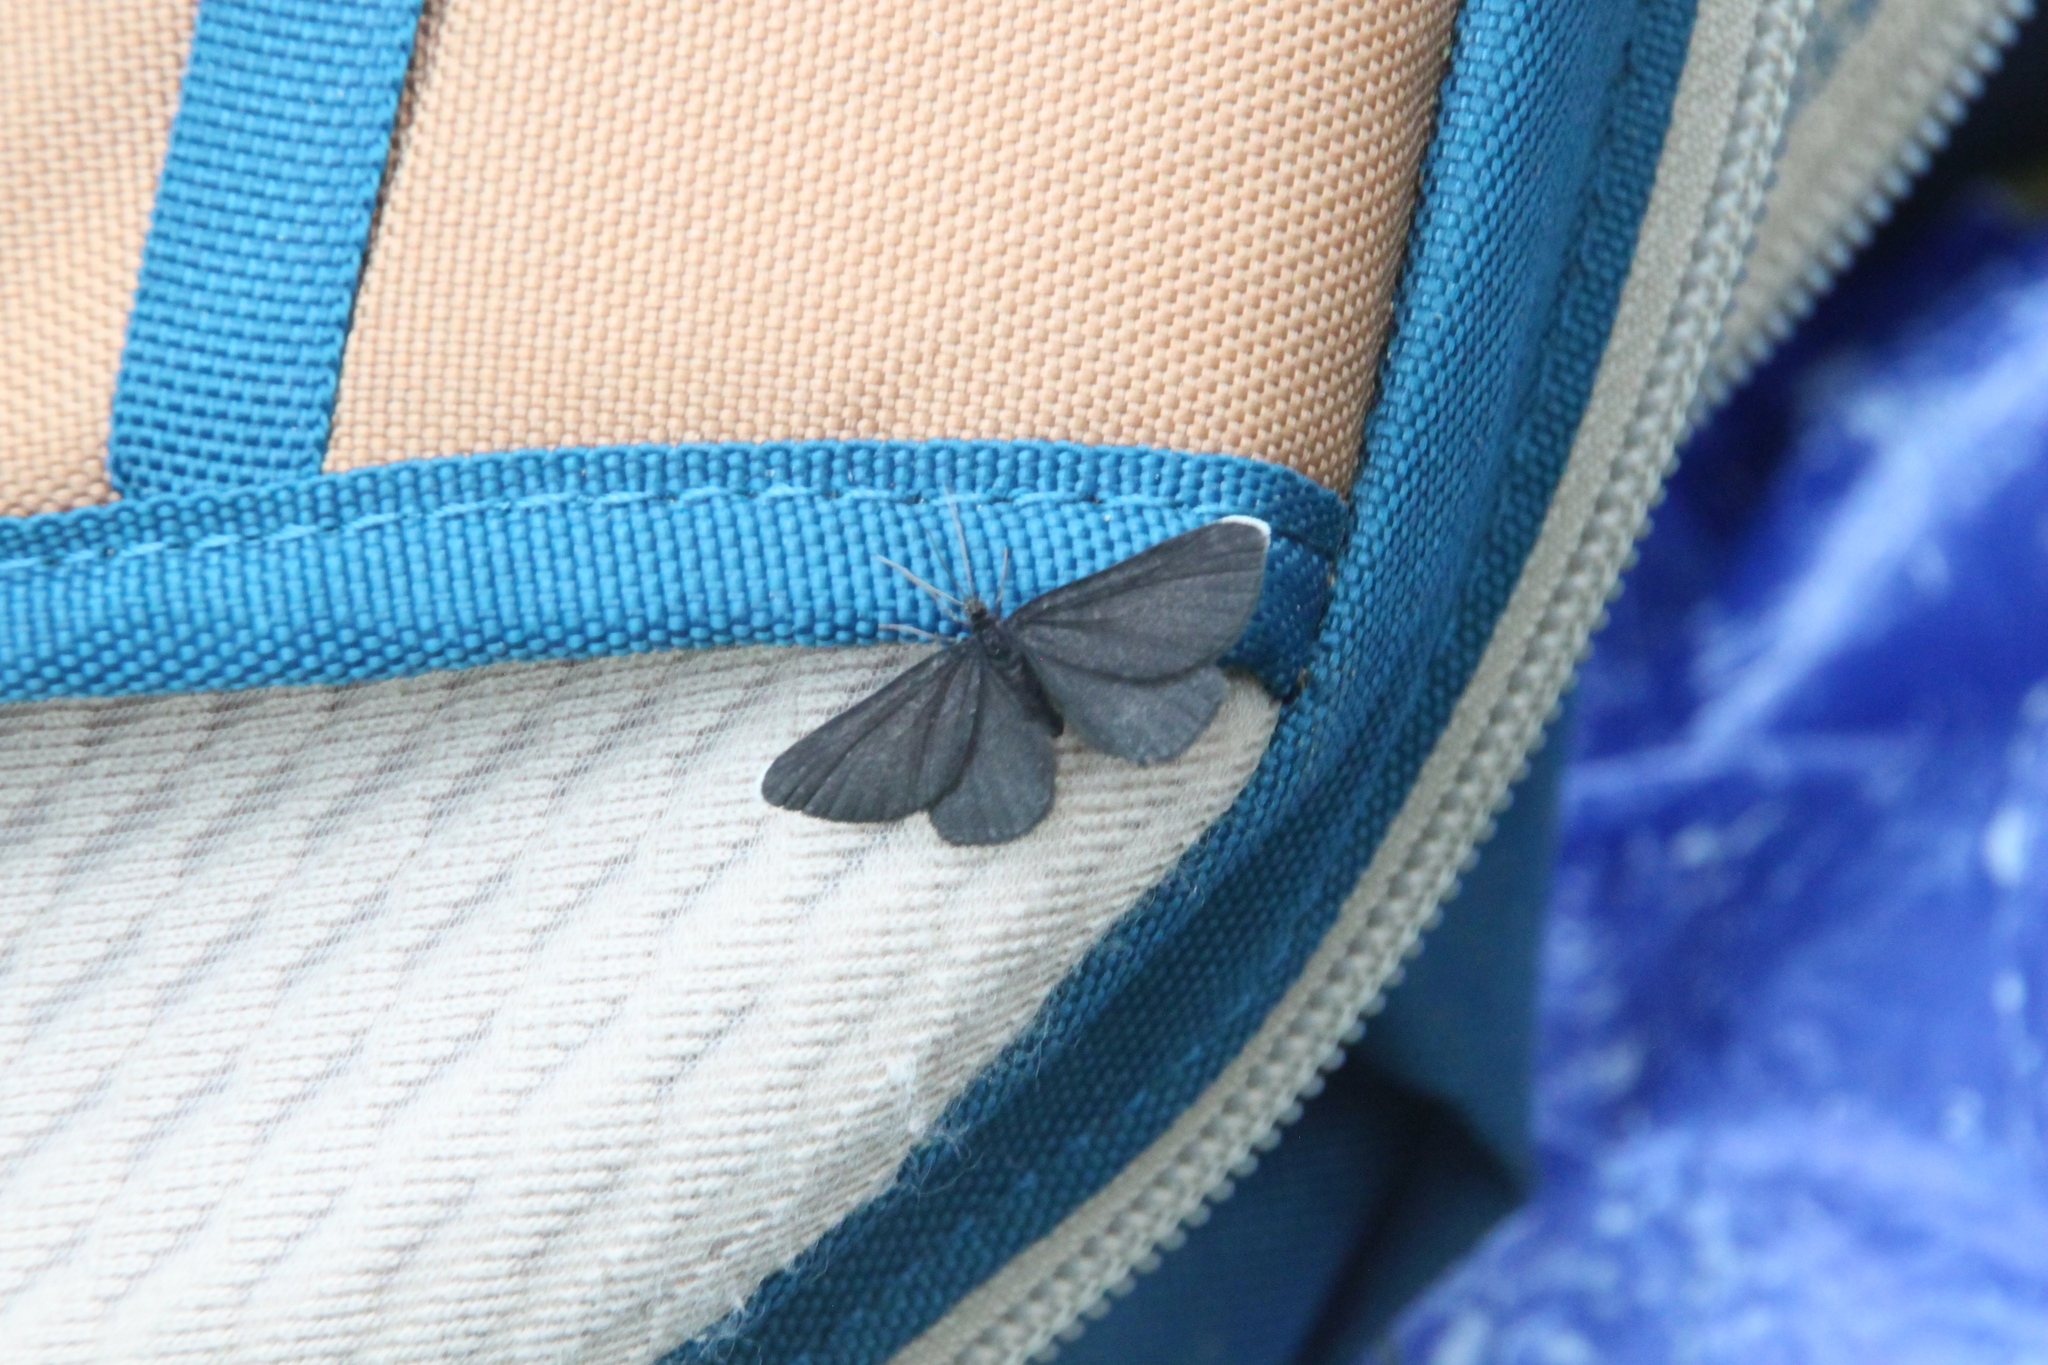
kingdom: Animalia
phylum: Arthropoda
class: Insecta
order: Lepidoptera
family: Geometridae
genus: Odezia
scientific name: Odezia atrata
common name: Chimney sweeper
